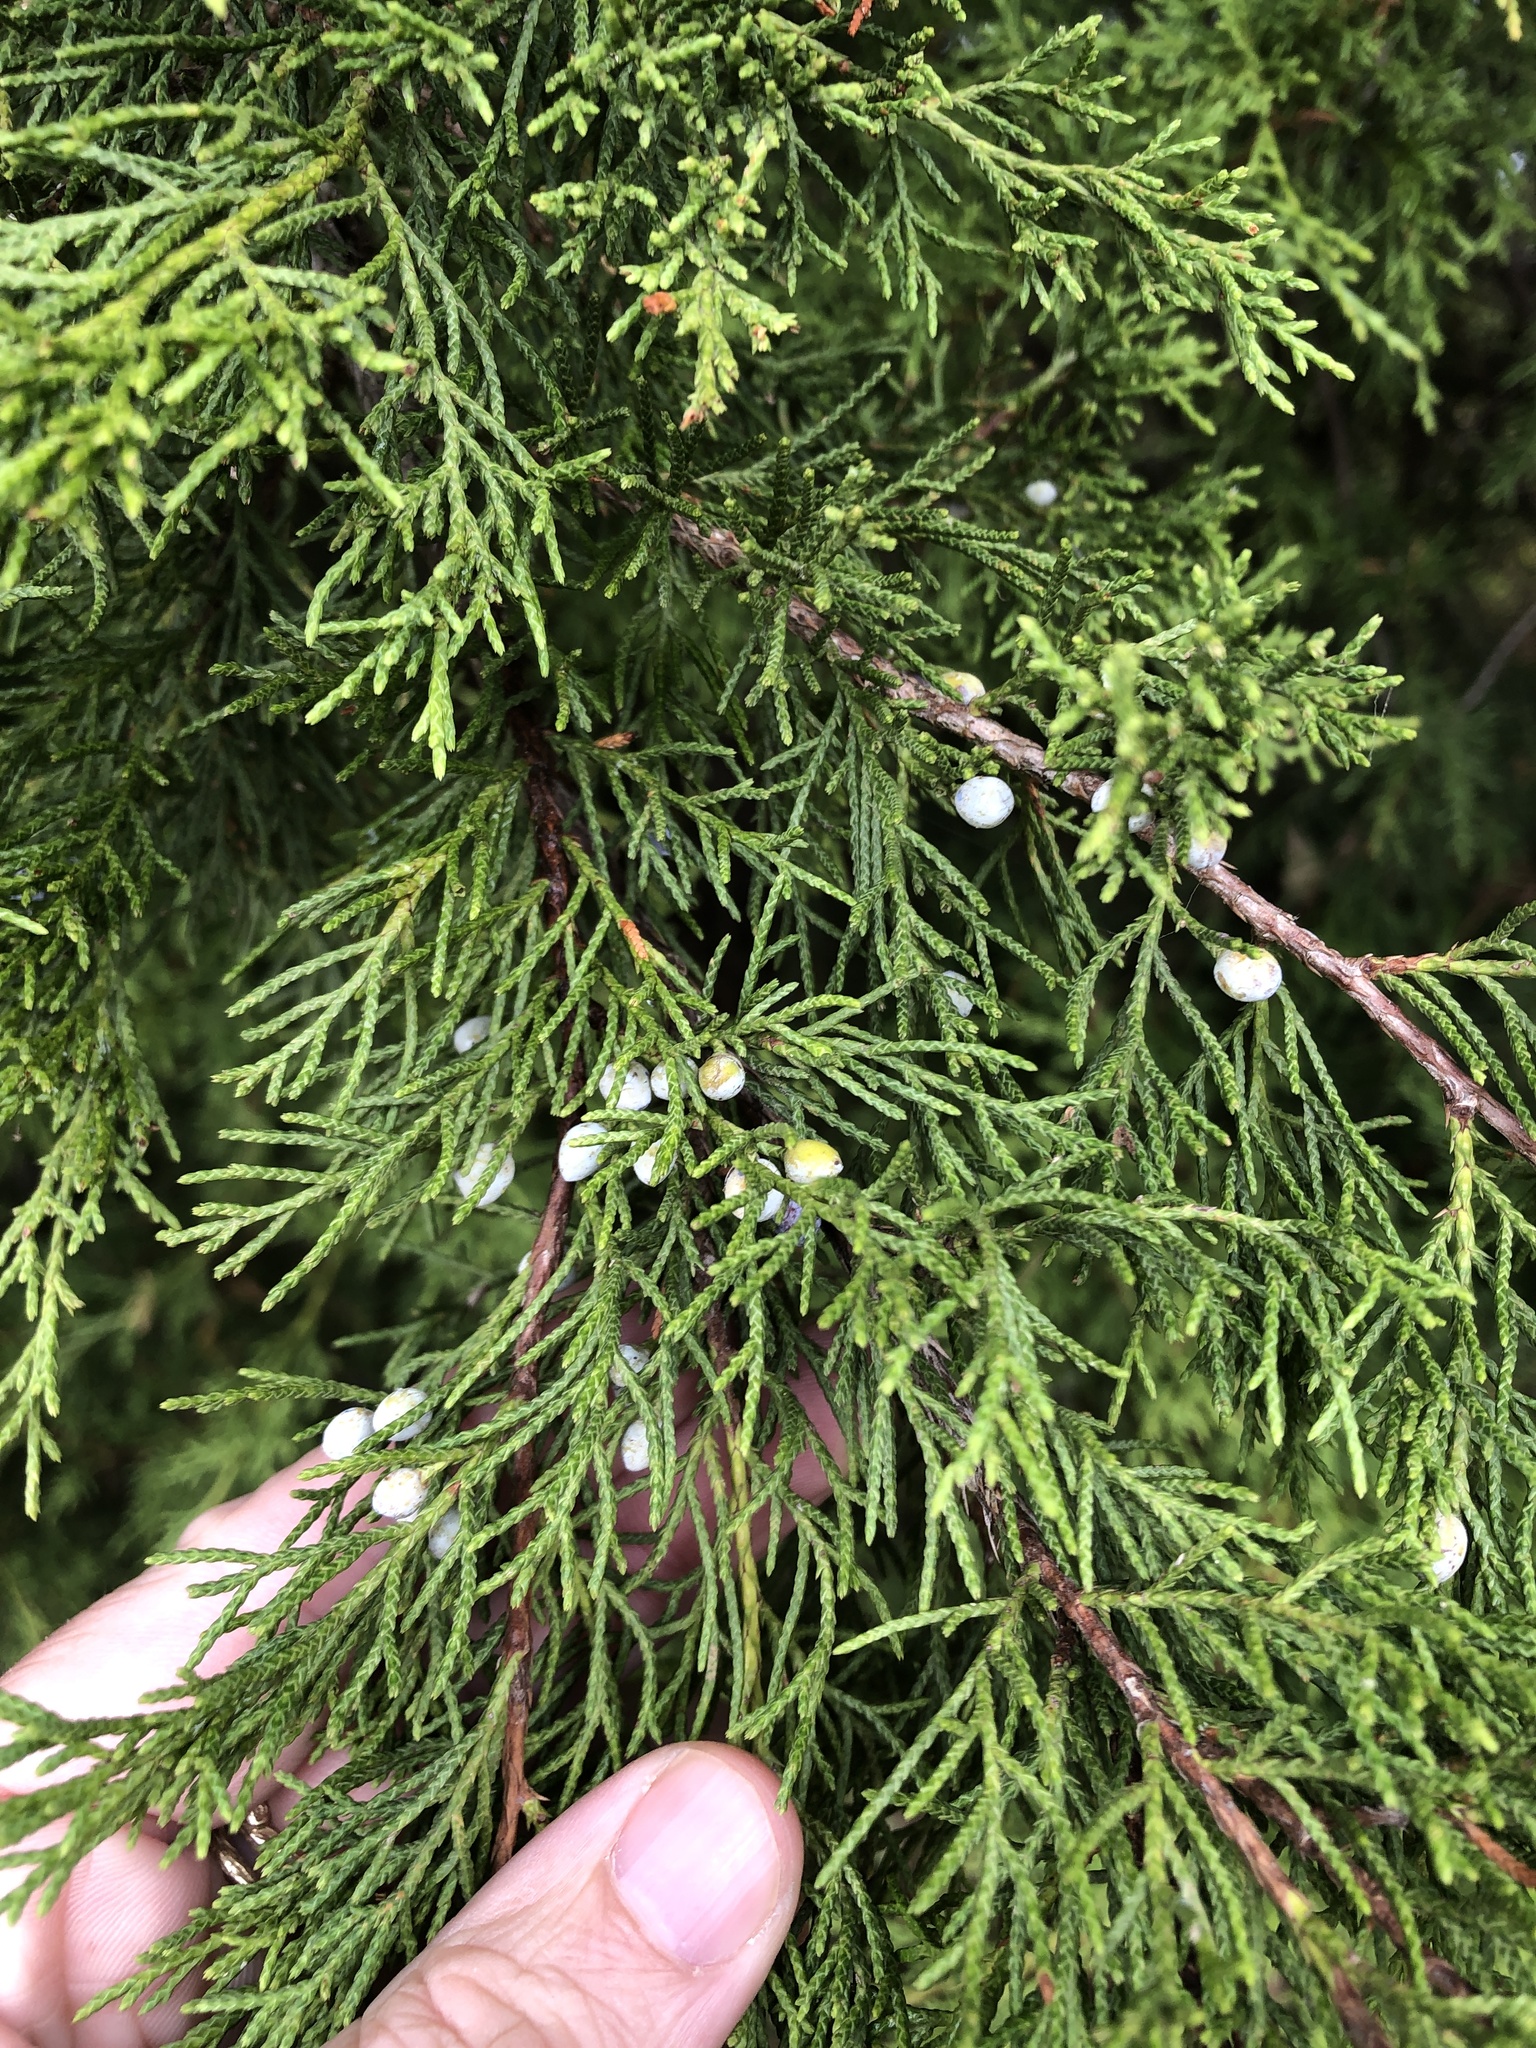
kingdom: Plantae
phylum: Tracheophyta
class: Pinopsida
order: Pinales
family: Cupressaceae
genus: Juniperus
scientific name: Juniperus virginiana
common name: Red juniper
